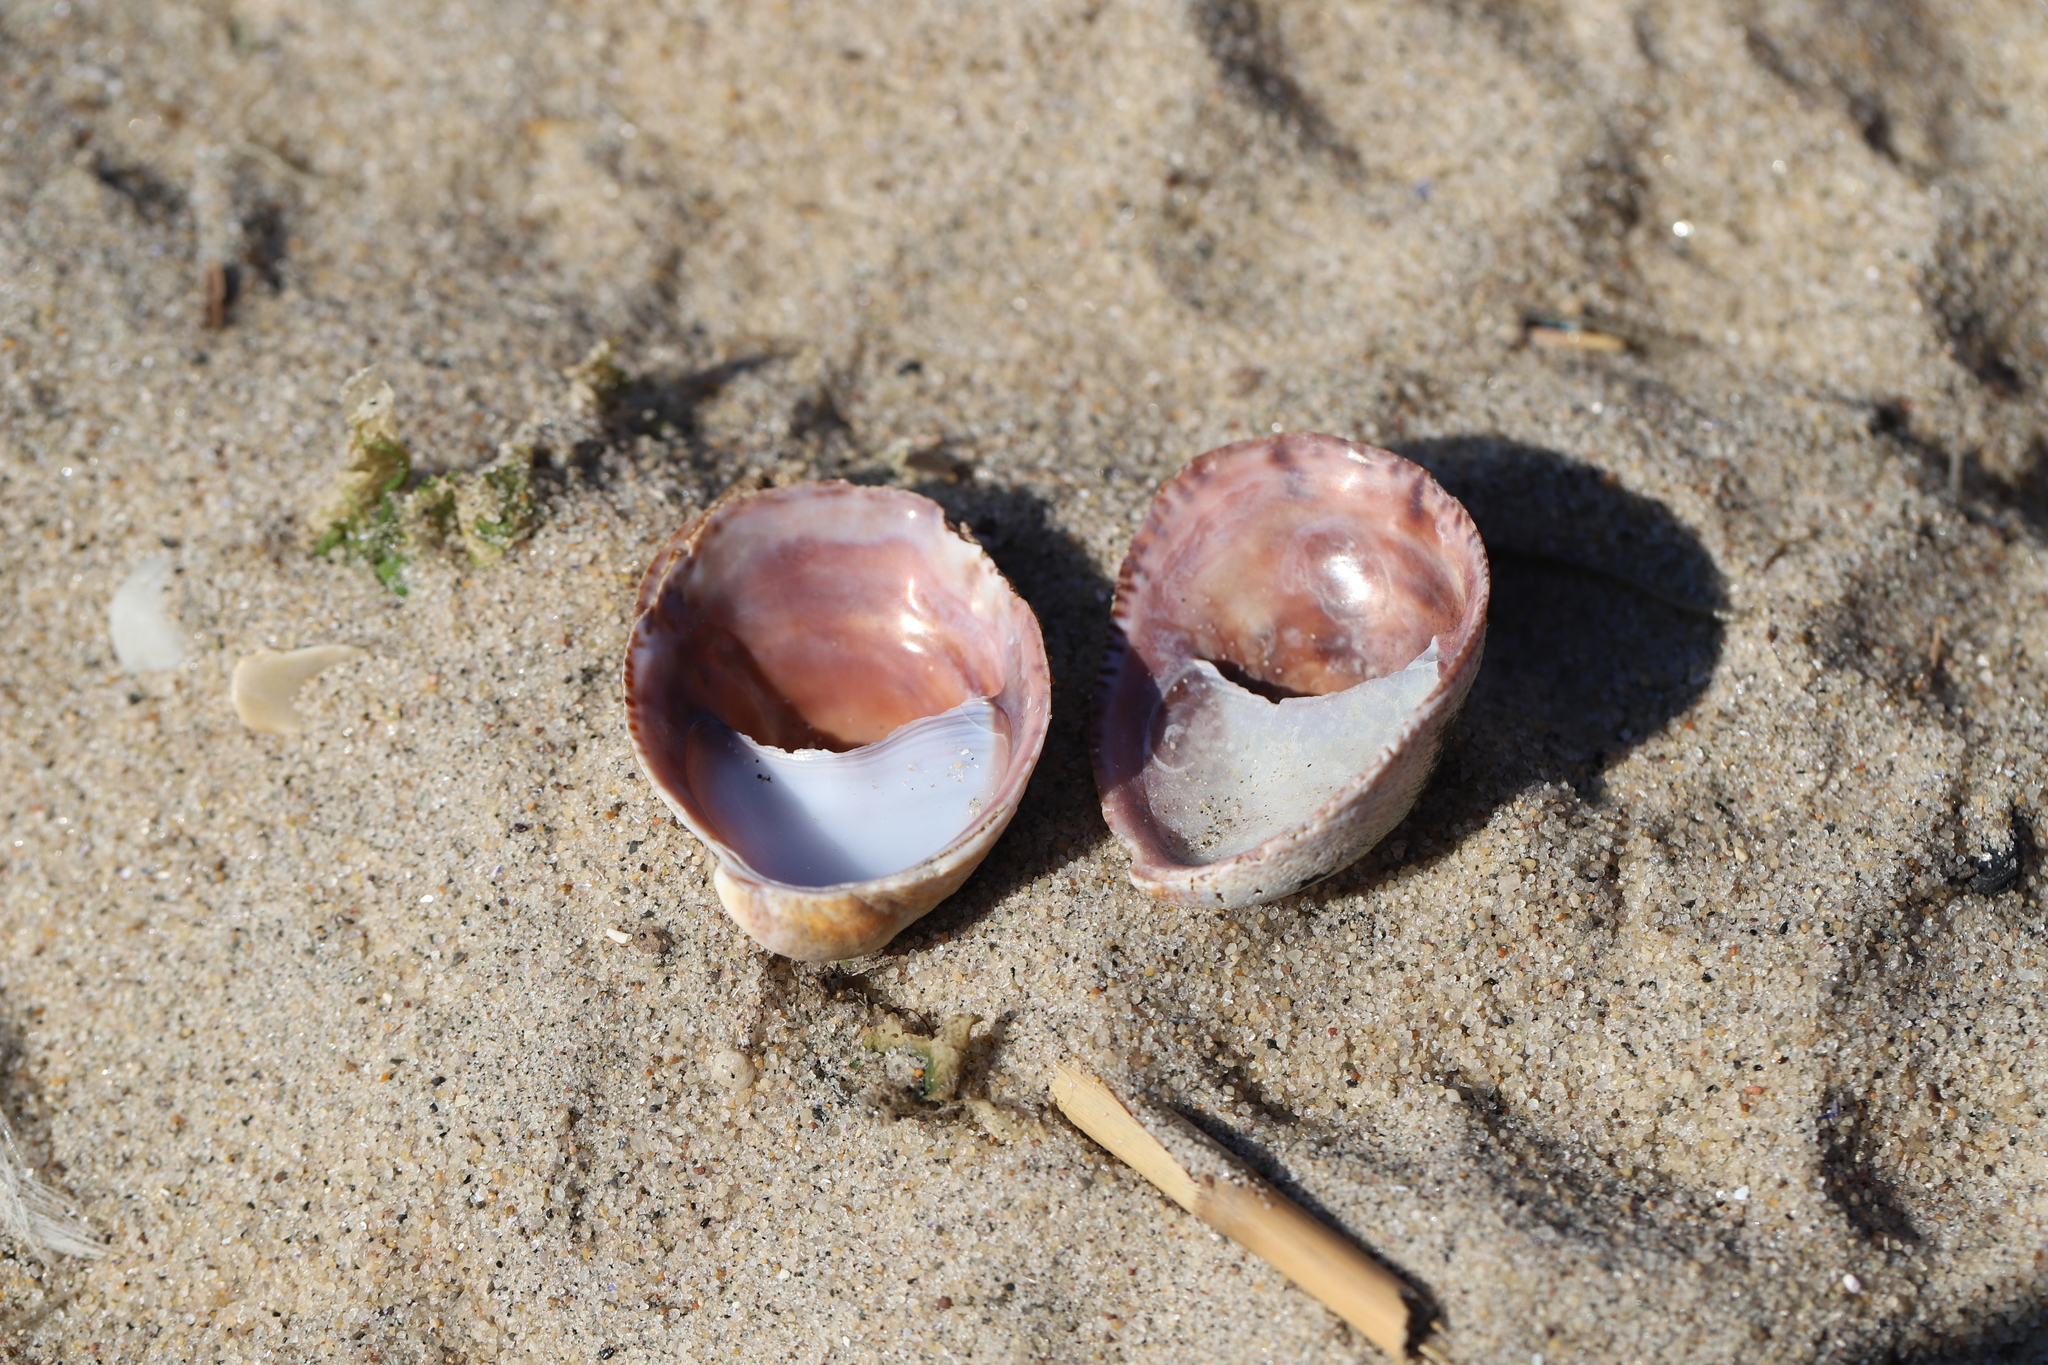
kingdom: Animalia
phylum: Mollusca
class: Gastropoda
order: Littorinimorpha
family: Calyptraeidae
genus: Crepidula
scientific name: Crepidula fornicata
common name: Slipper limpet
